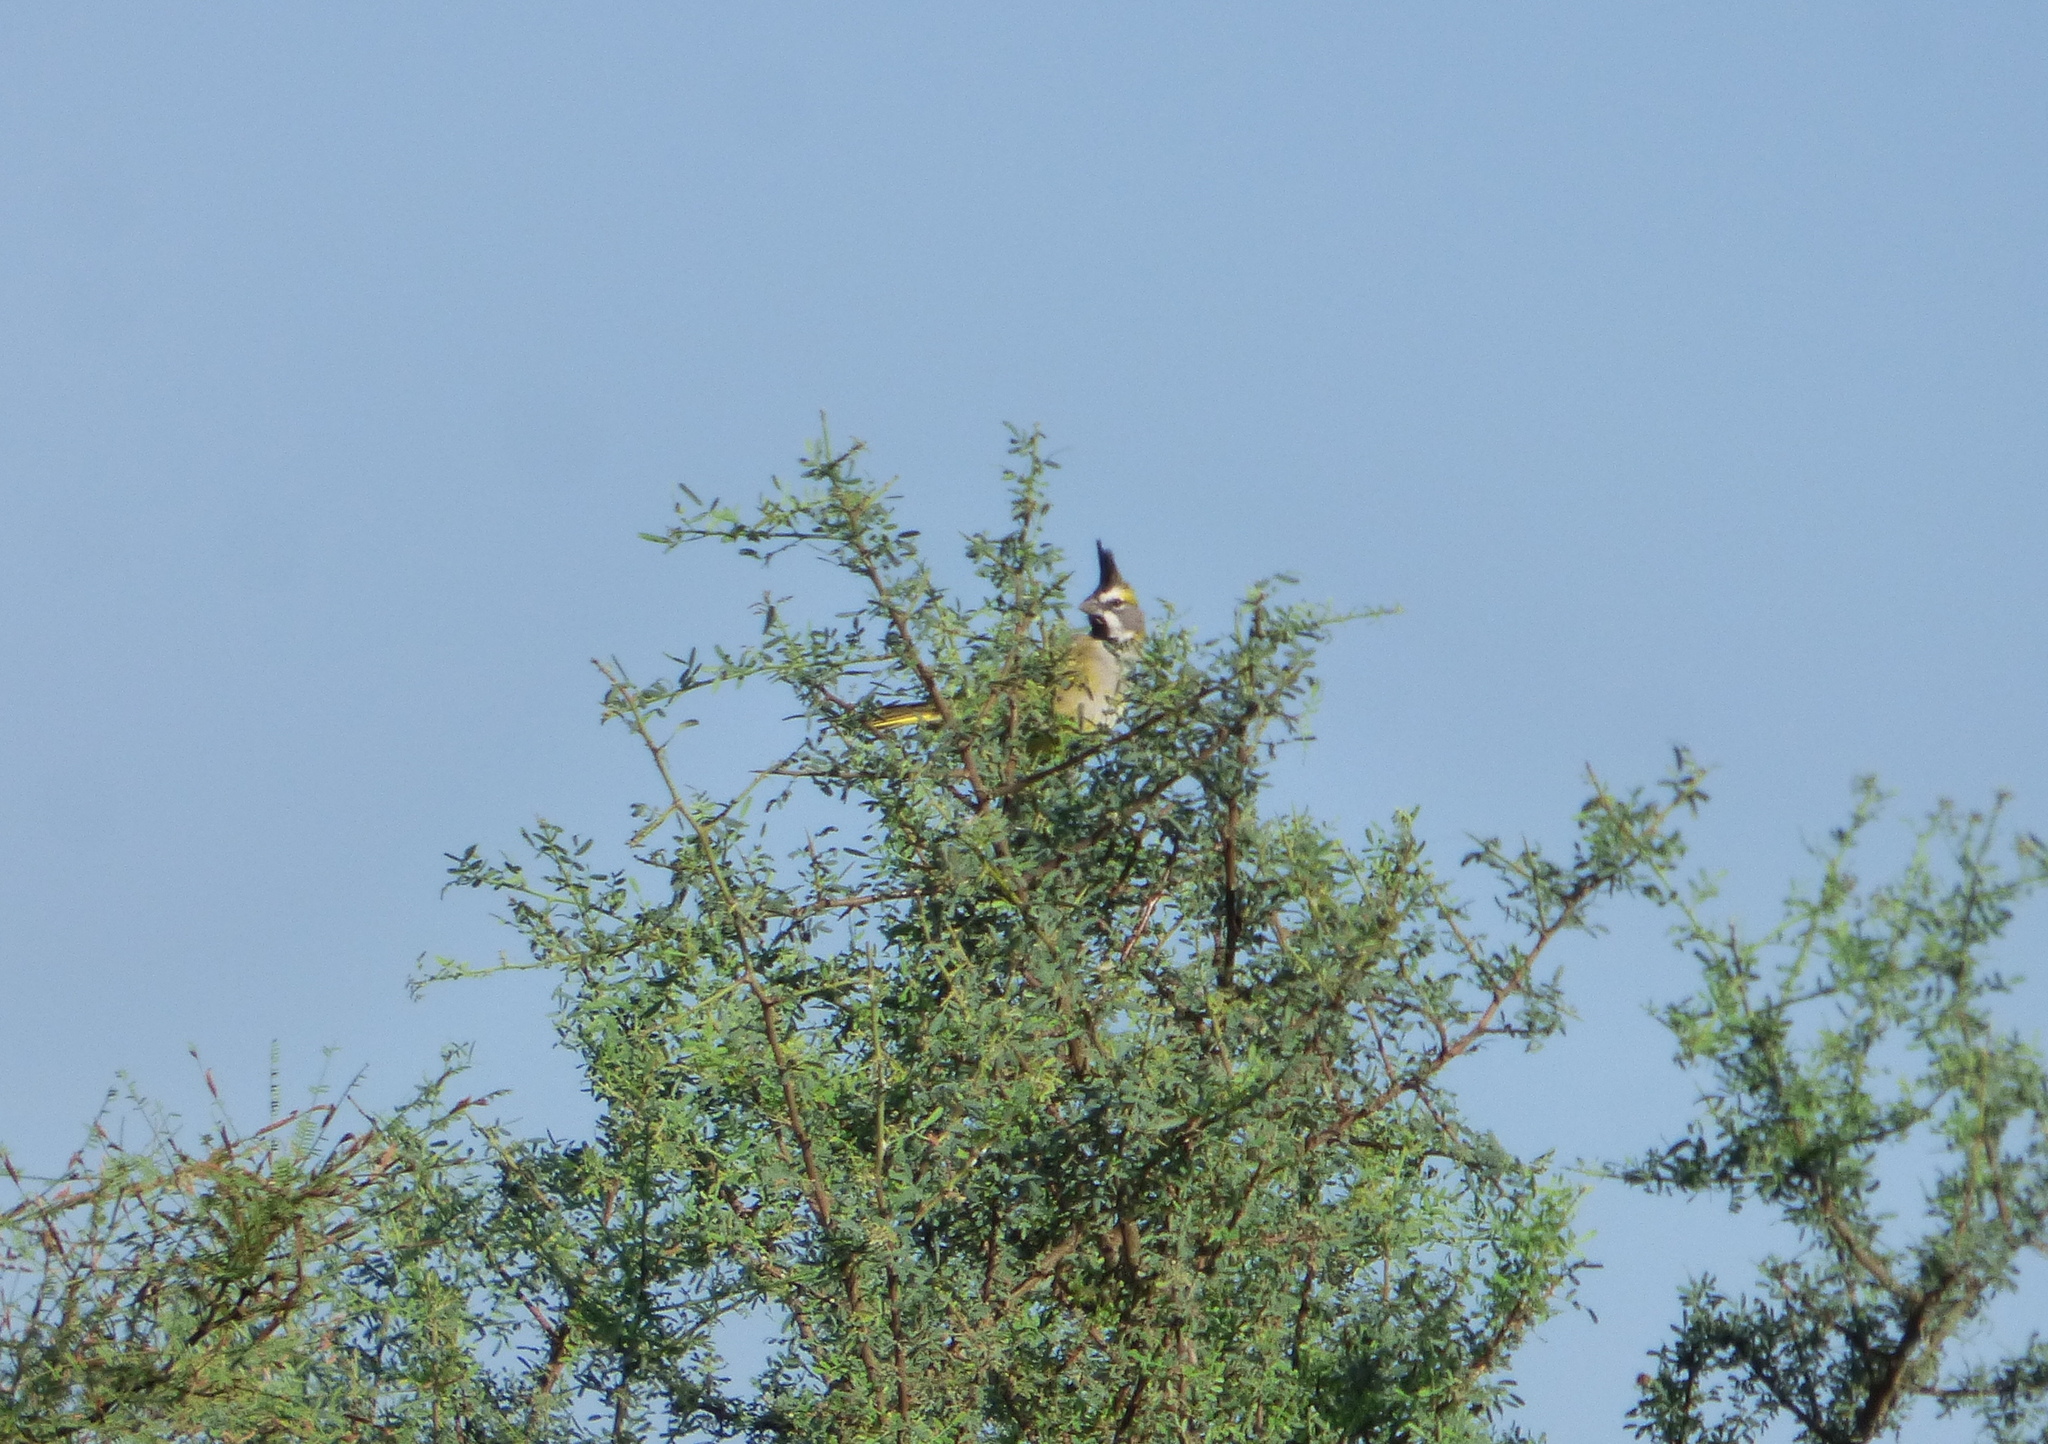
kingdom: Animalia
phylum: Chordata
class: Aves
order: Passeriformes
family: Thraupidae
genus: Gubernatrix
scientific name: Gubernatrix cristata
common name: Yellow cardinal
